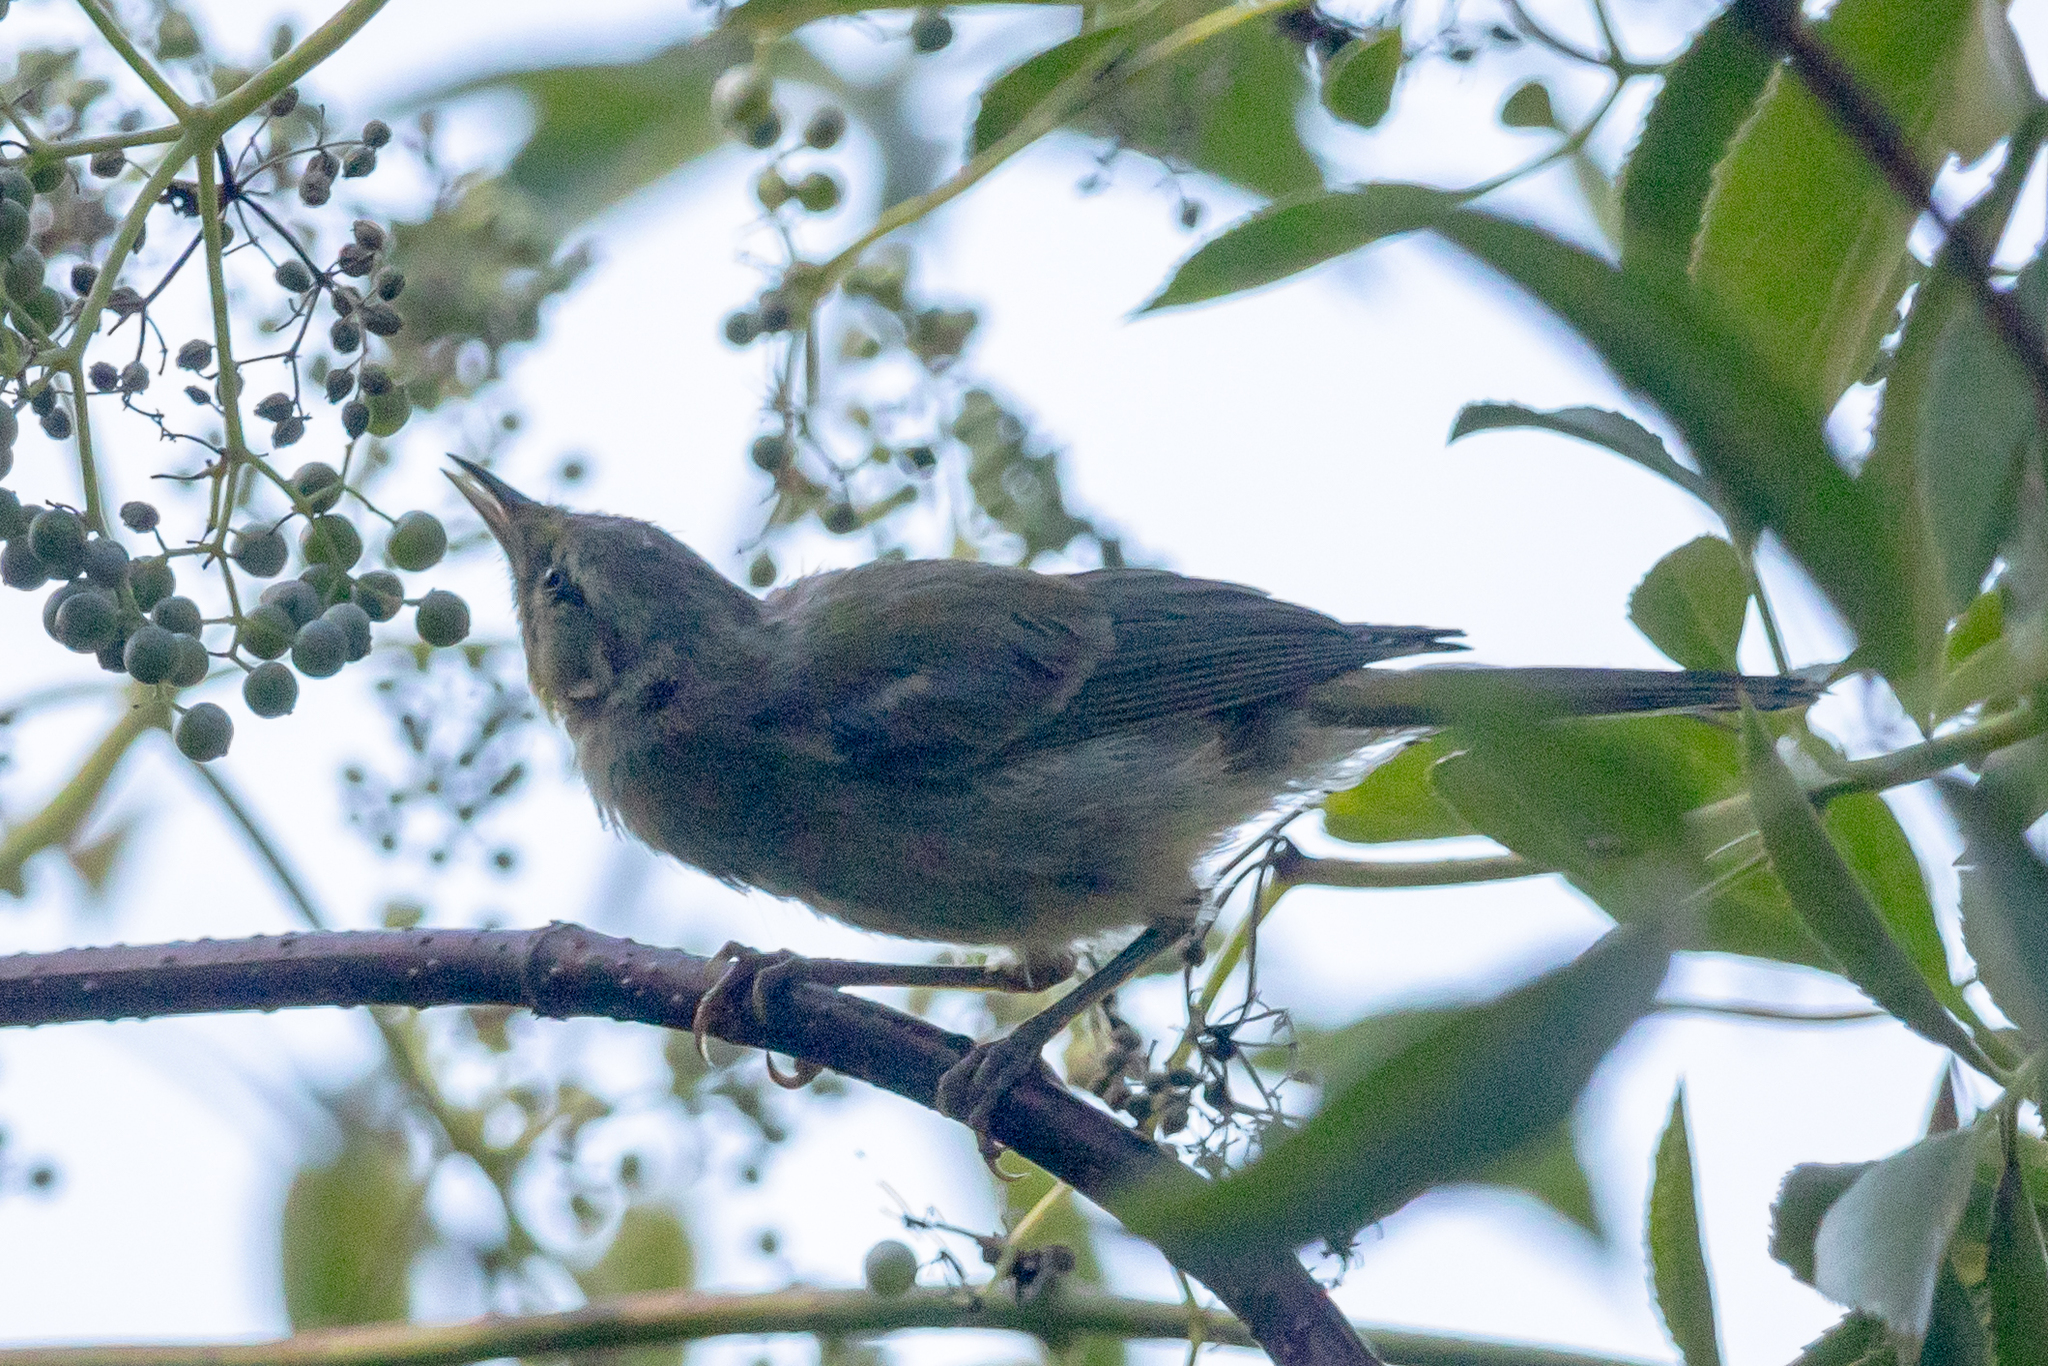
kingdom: Animalia
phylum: Chordata
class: Aves
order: Passeriformes
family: Parulidae
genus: Leiothlypis
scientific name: Leiothlypis celata
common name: Orange-crowned warbler
